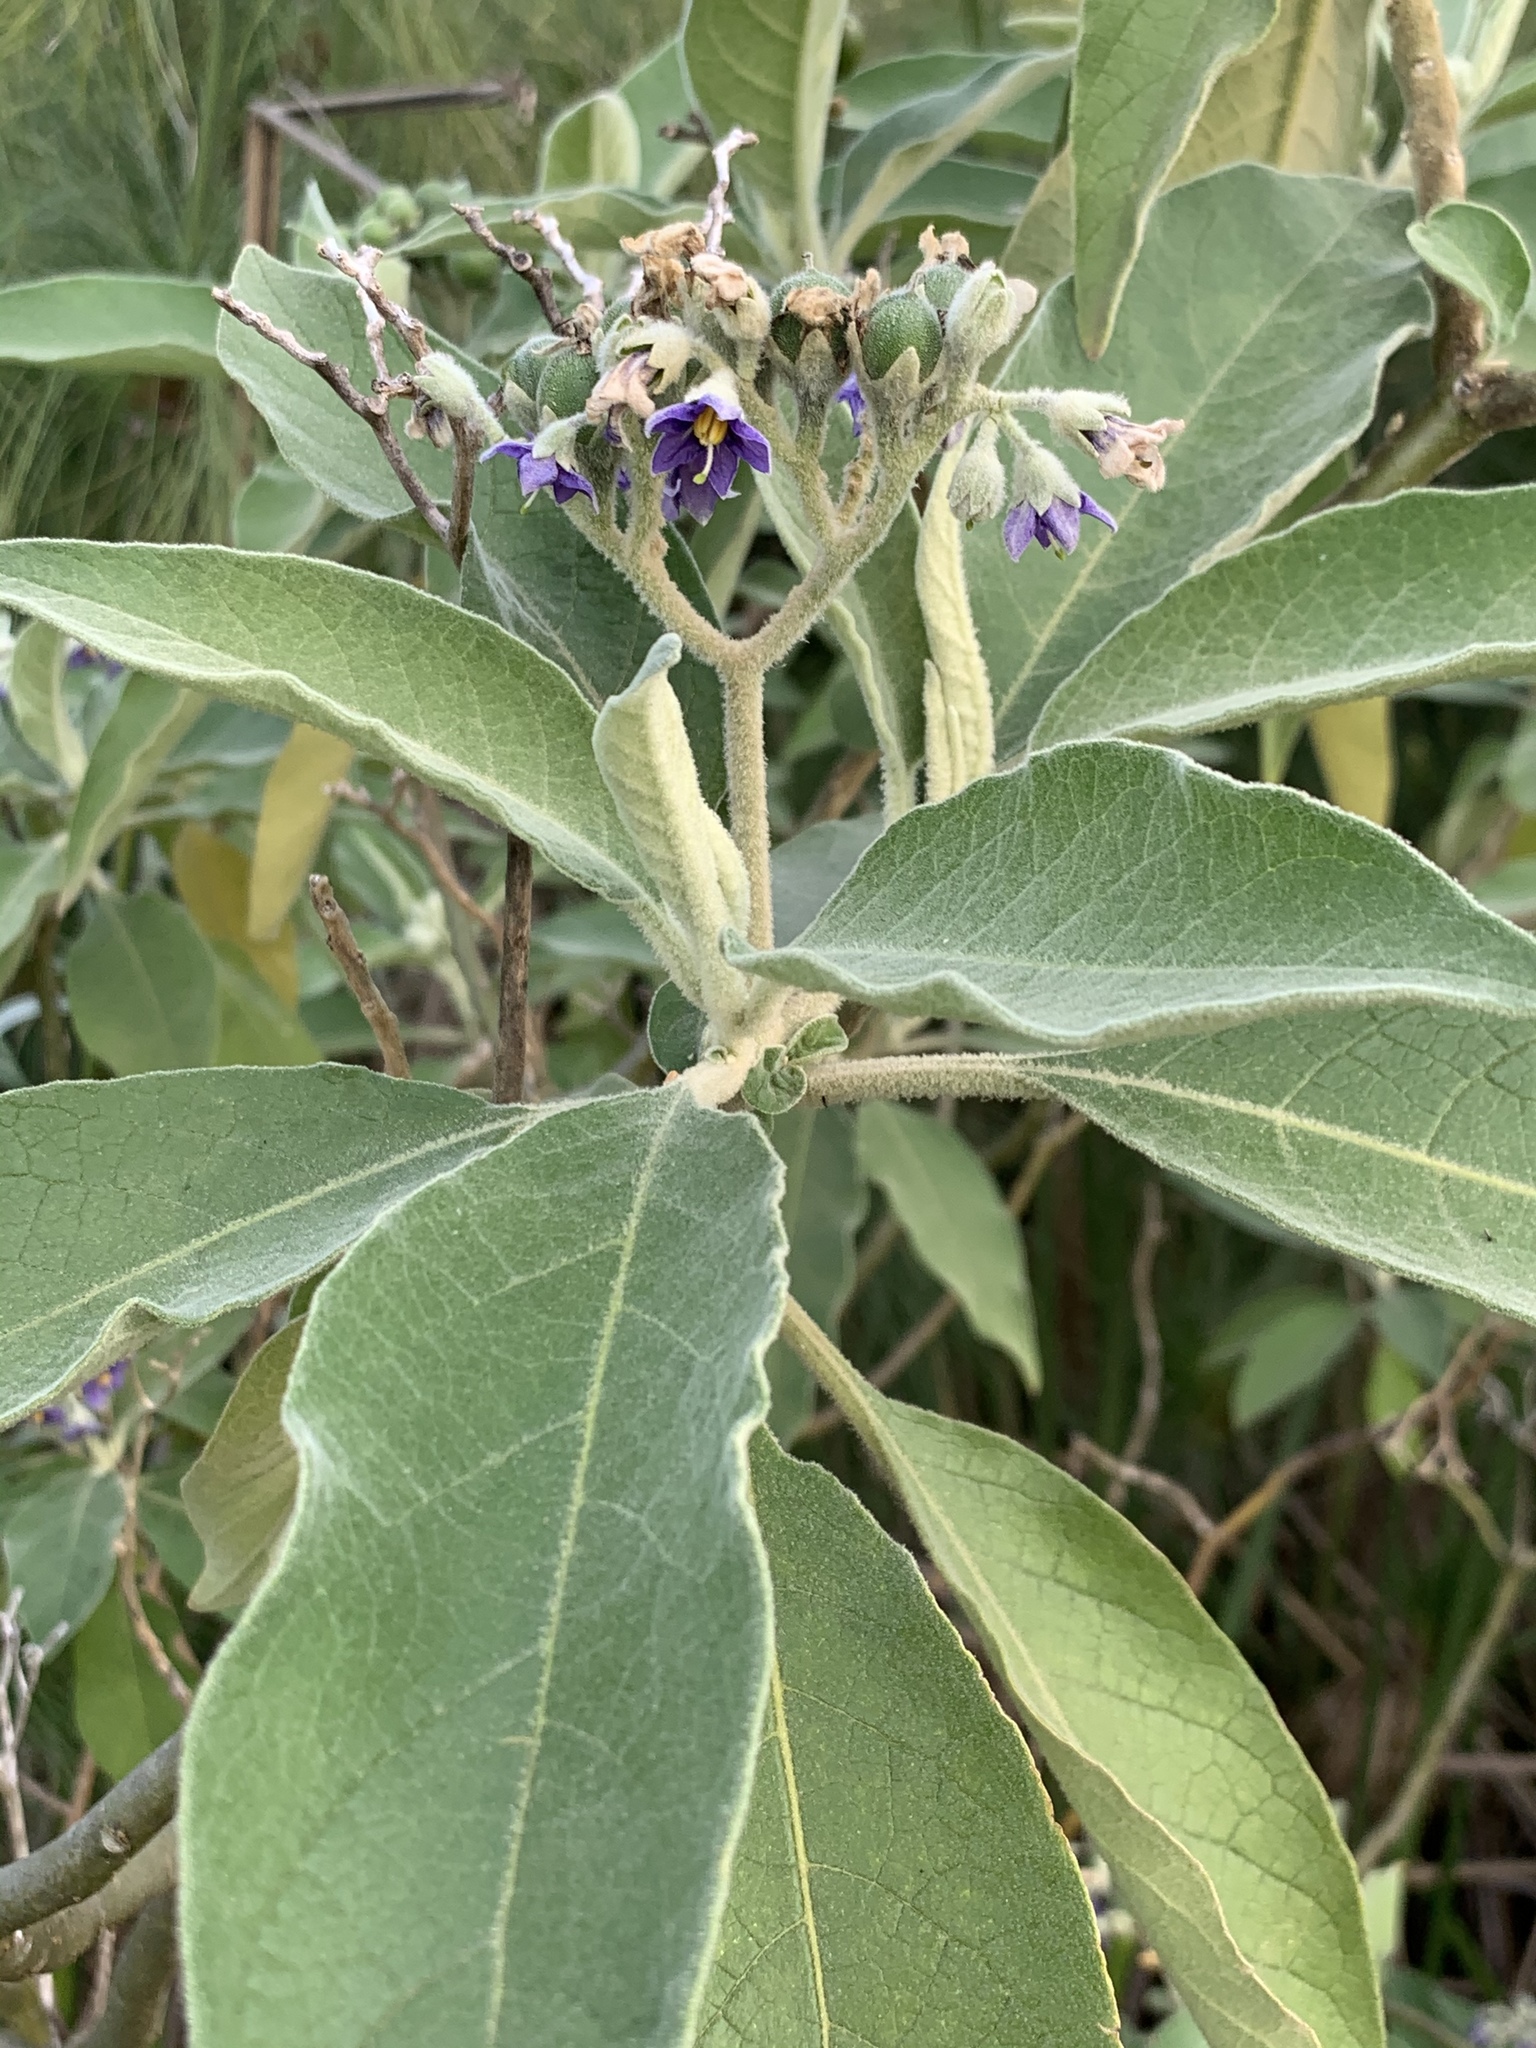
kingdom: Plantae
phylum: Tracheophyta
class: Magnoliopsida
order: Solanales
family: Solanaceae
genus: Solanum
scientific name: Solanum mauritianum
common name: Earleaf nightshade
